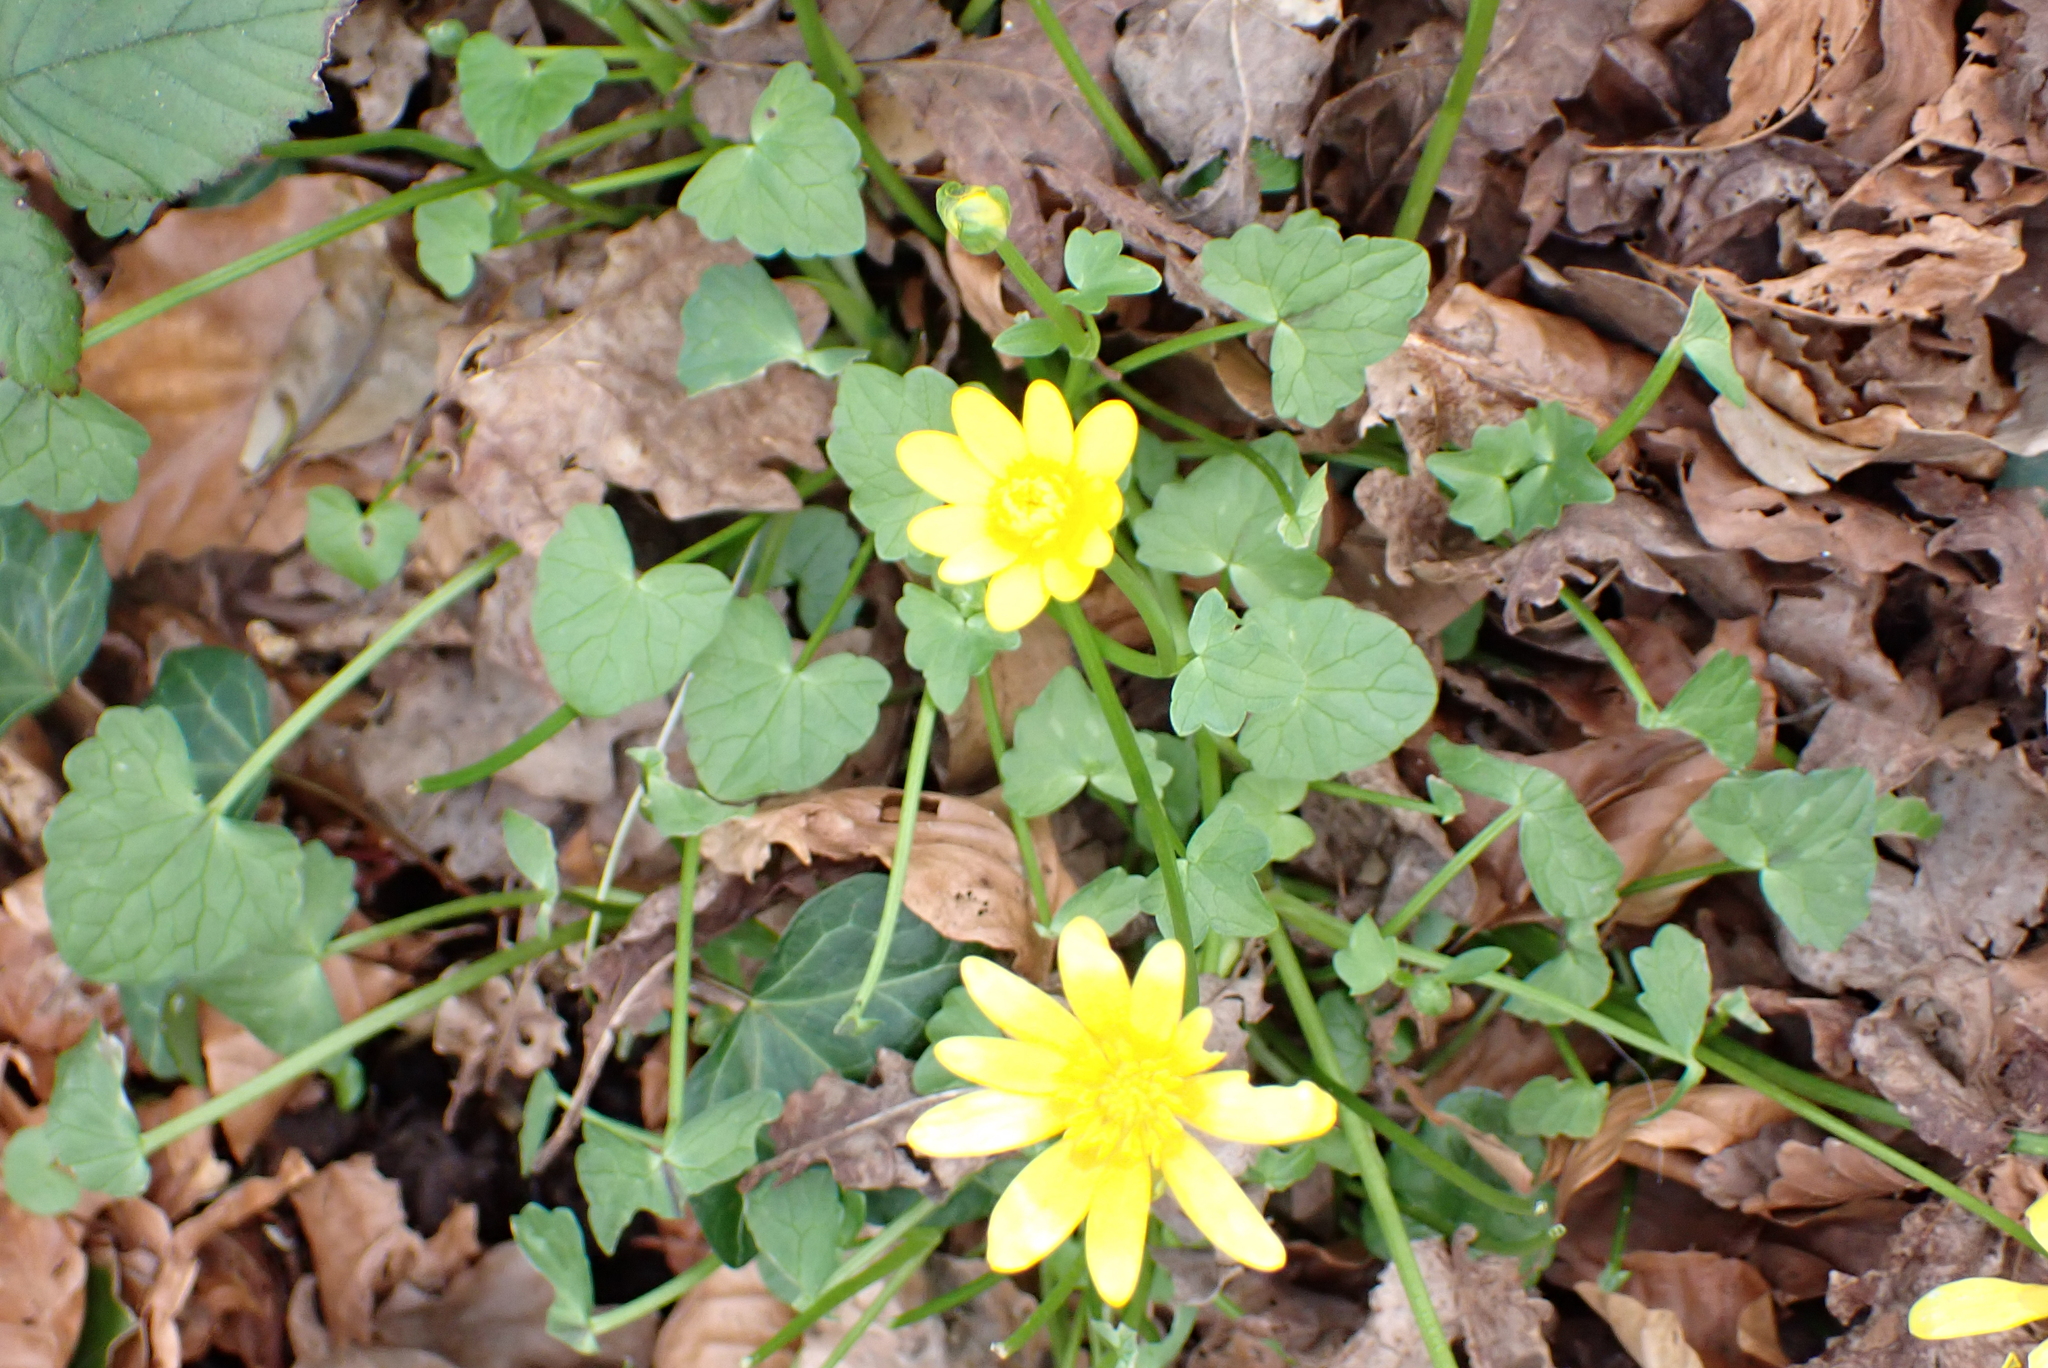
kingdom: Plantae
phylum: Tracheophyta
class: Magnoliopsida
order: Ranunculales
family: Ranunculaceae
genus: Ficaria
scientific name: Ficaria verna
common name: Lesser celandine
